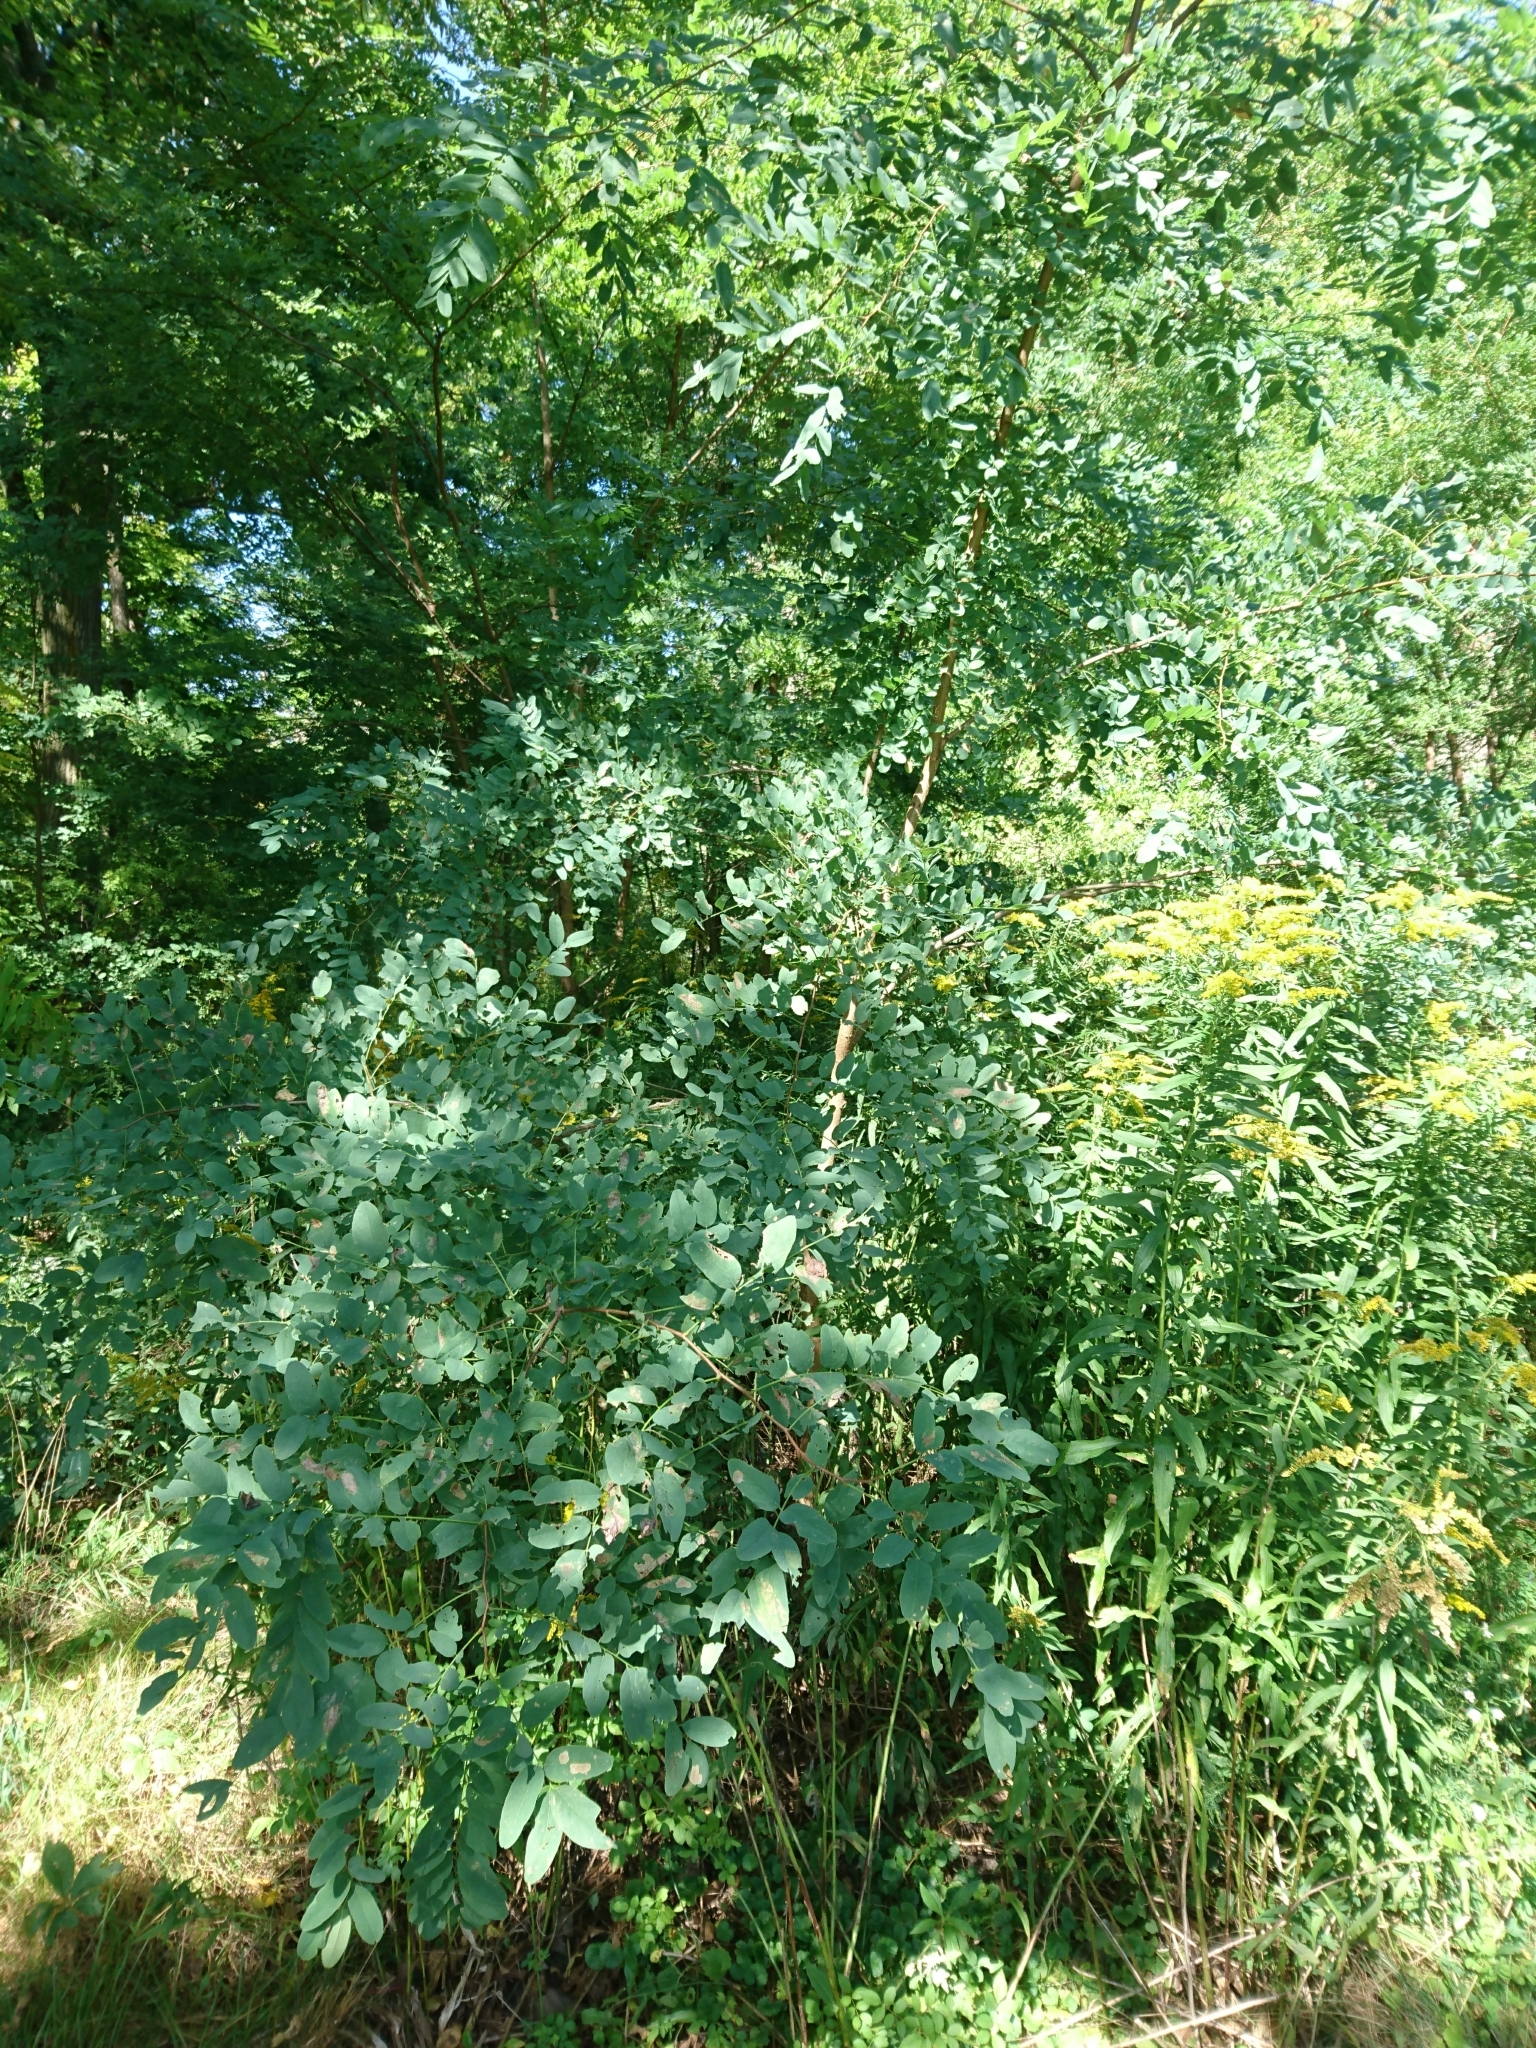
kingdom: Plantae
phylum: Tracheophyta
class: Magnoliopsida
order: Fabales
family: Fabaceae
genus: Robinia
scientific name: Robinia pseudoacacia
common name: Black locust
